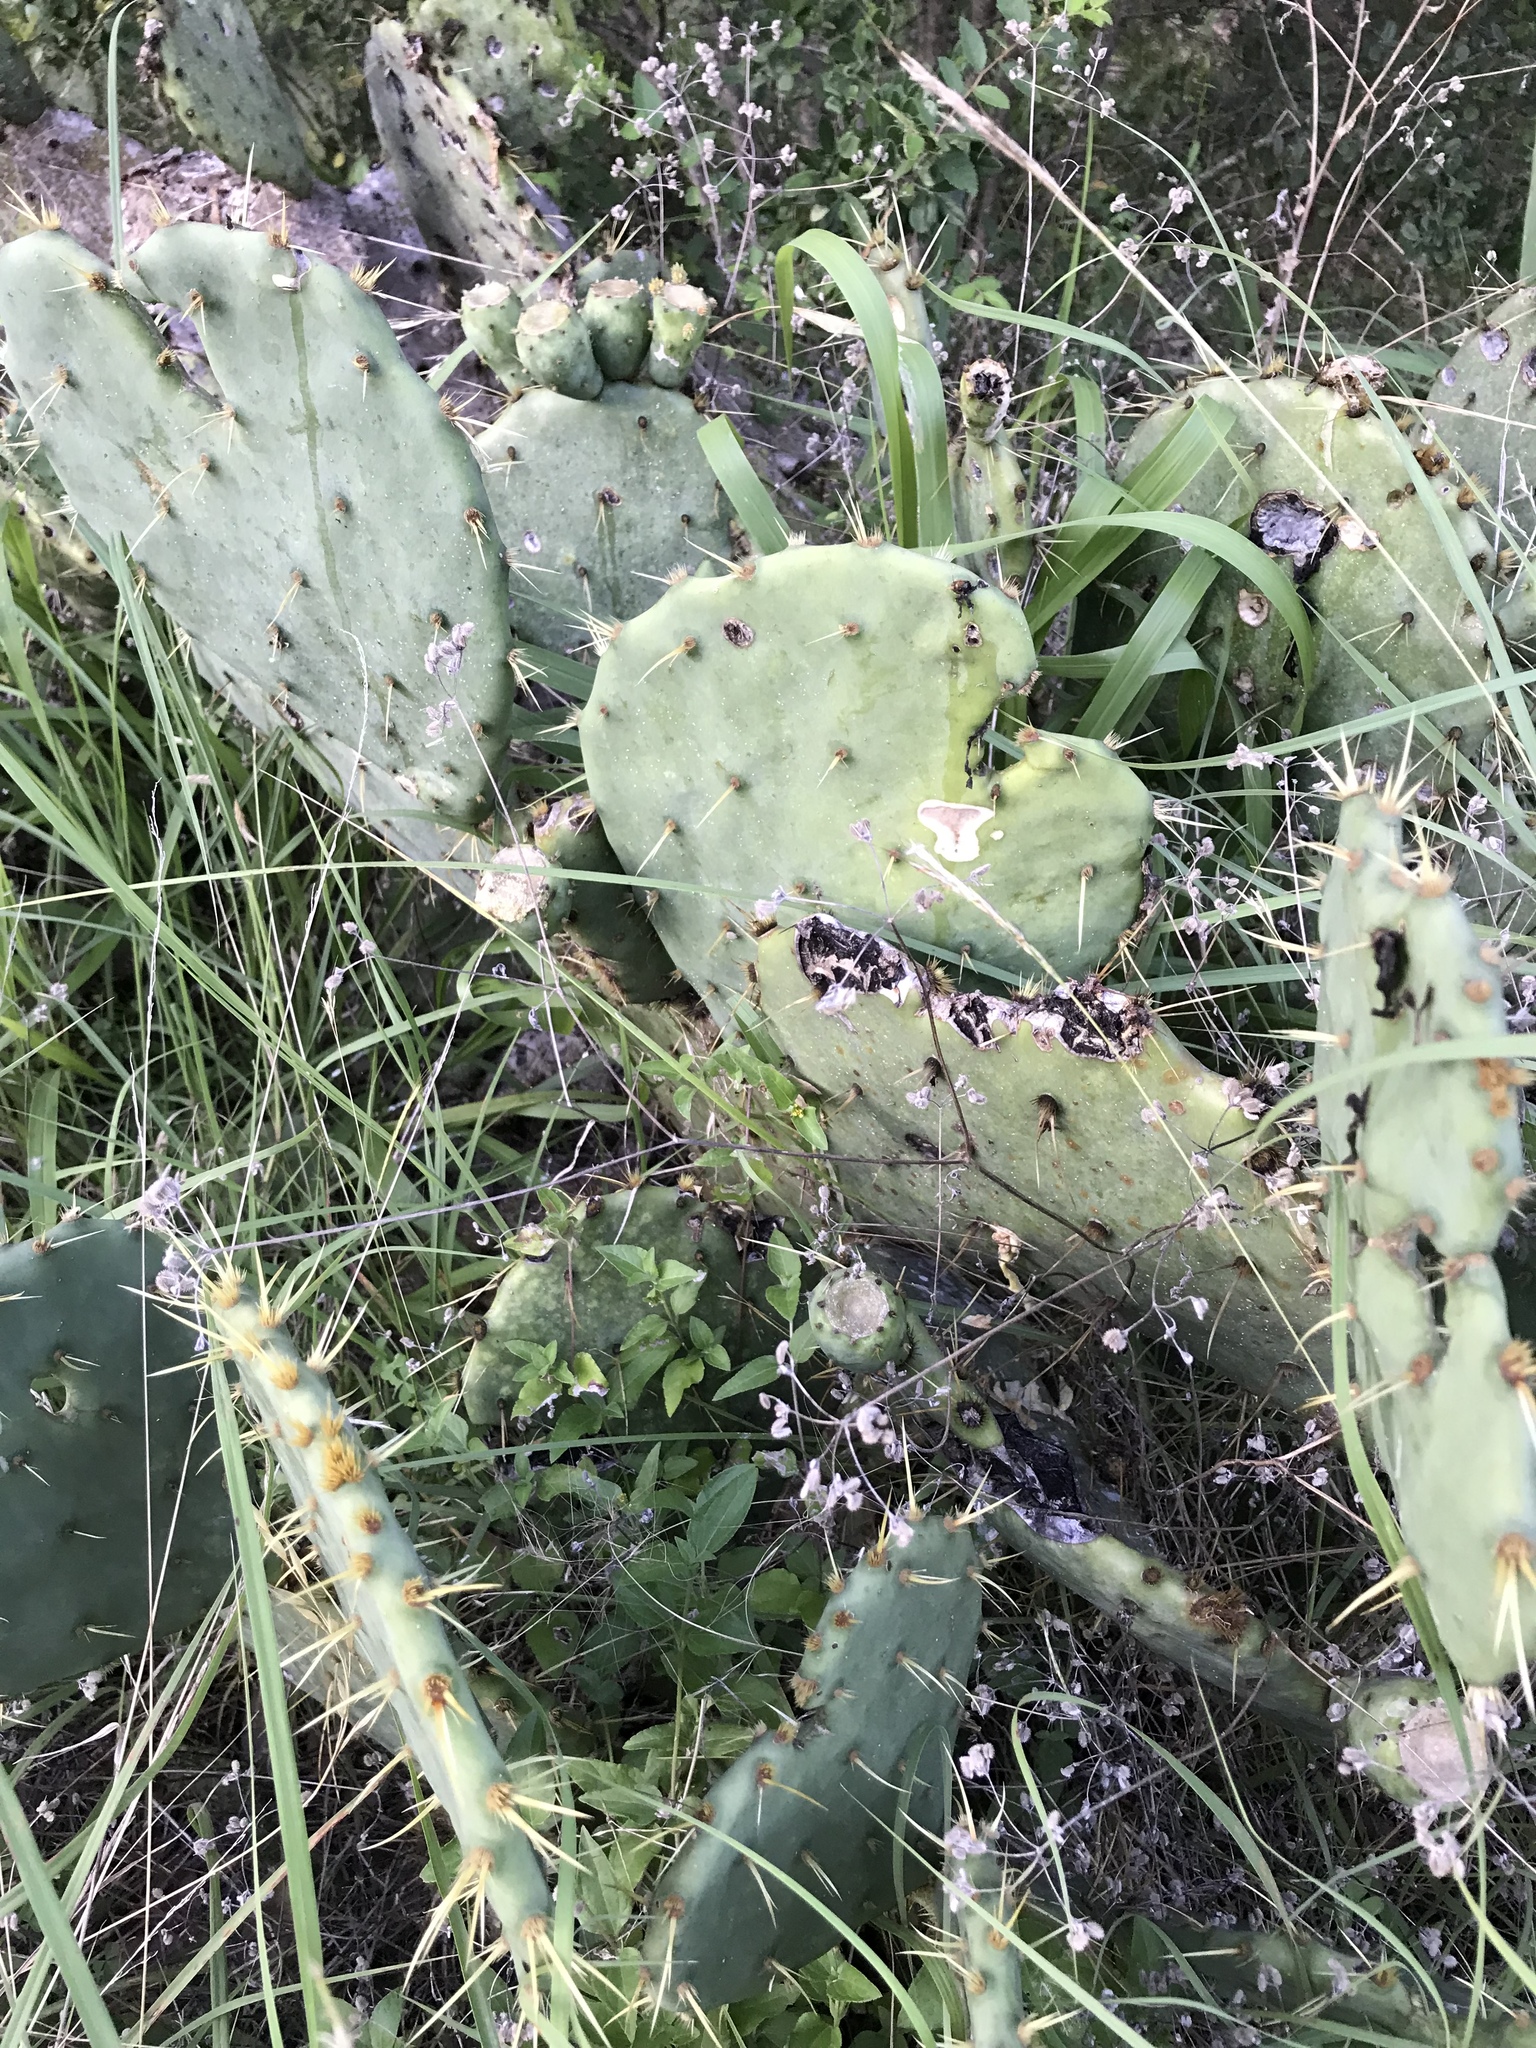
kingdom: Plantae
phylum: Tracheophyta
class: Magnoliopsida
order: Caryophyllales
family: Cactaceae
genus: Opuntia
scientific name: Opuntia engelmannii
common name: Cactus-apple
